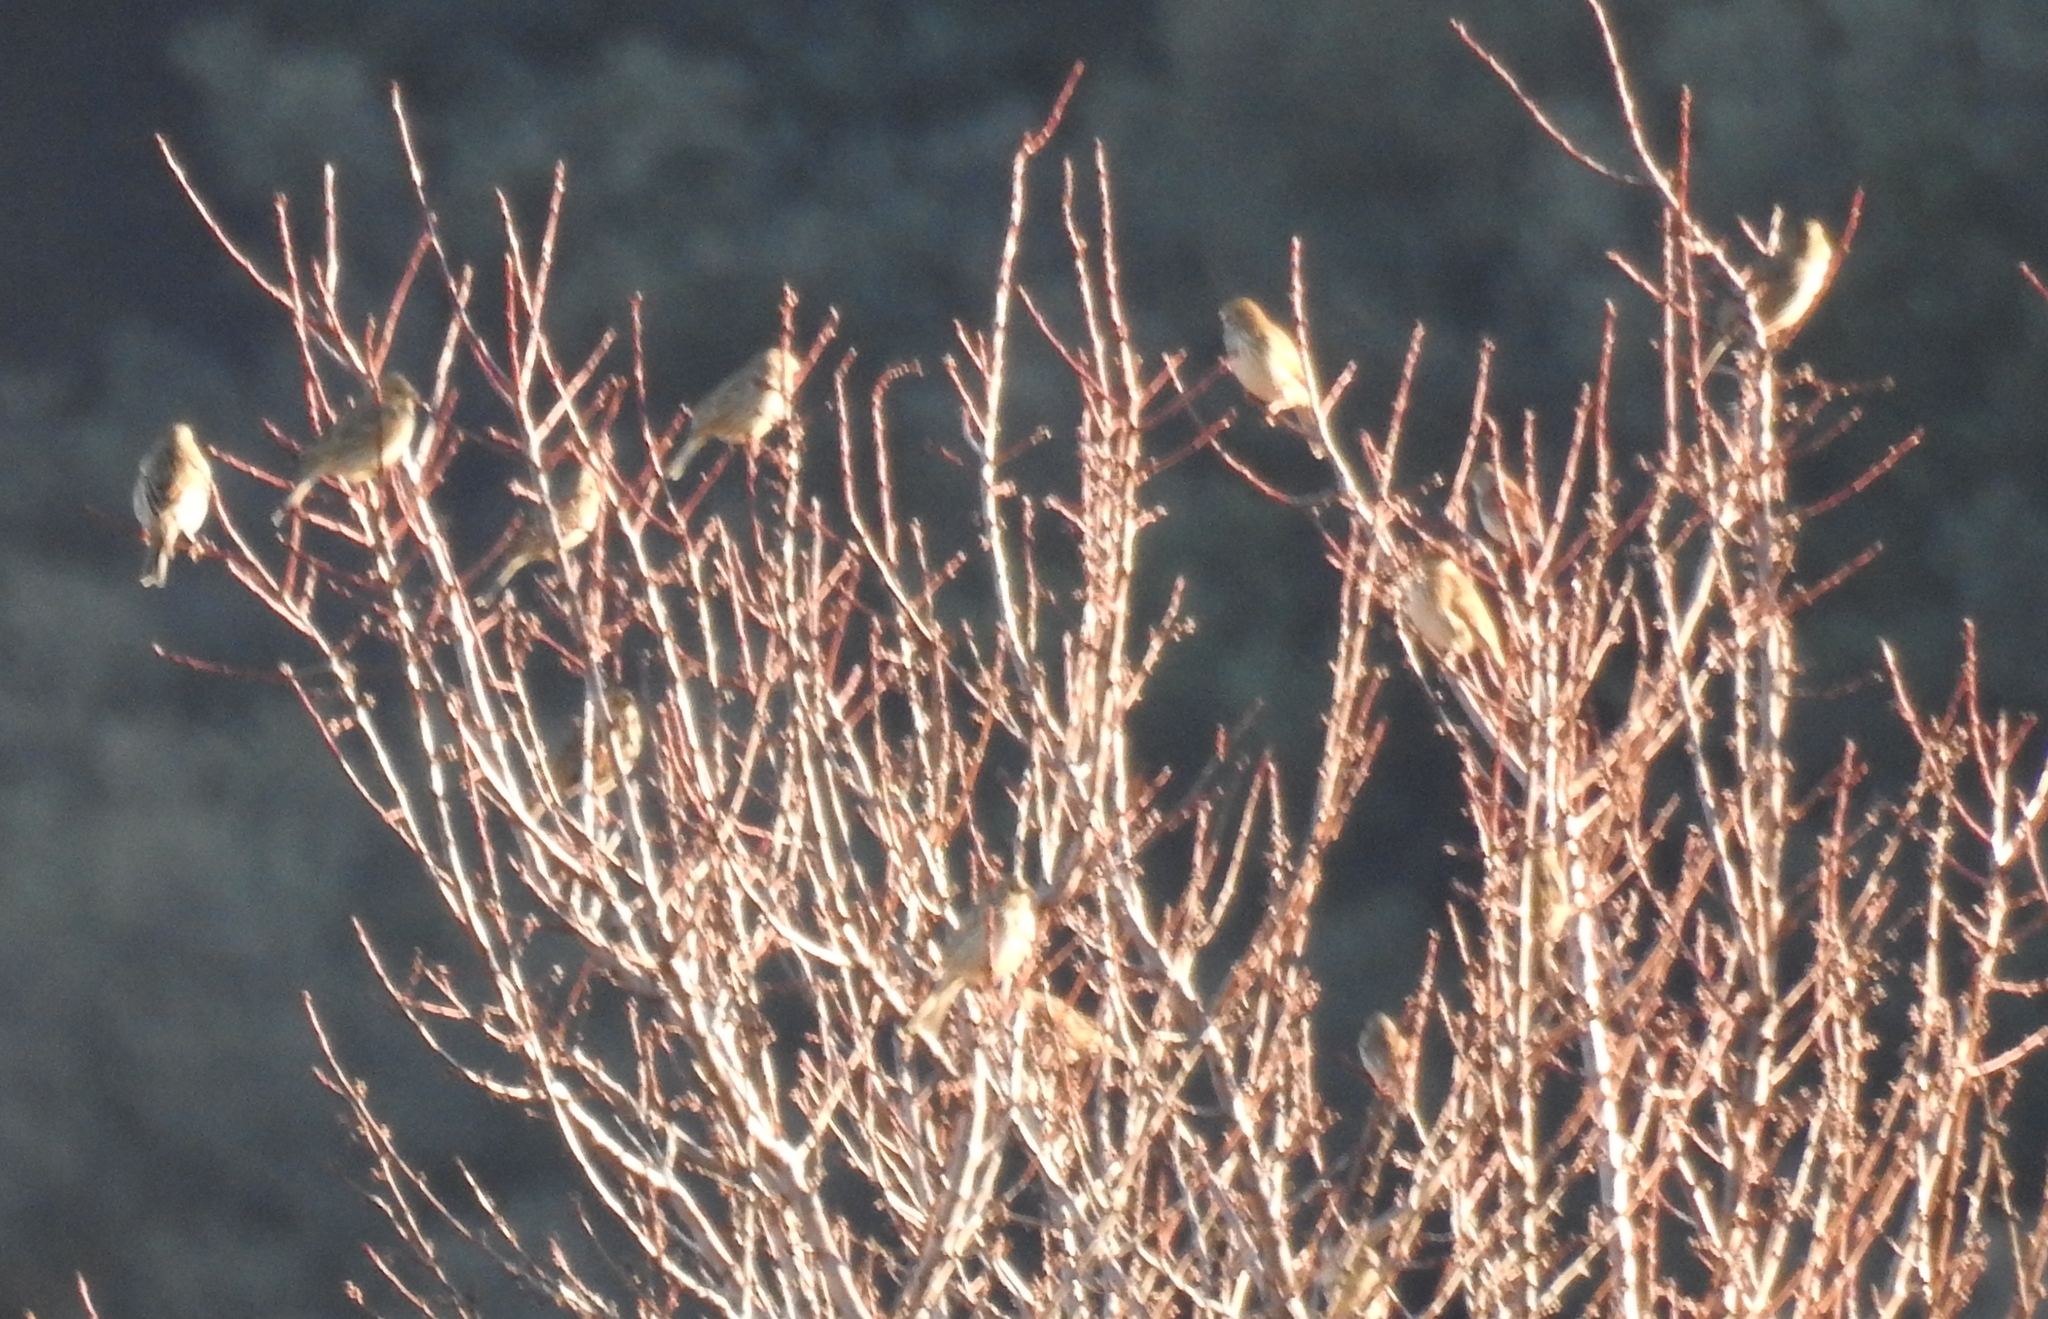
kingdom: Animalia
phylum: Chordata
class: Aves
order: Passeriformes
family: Emberizidae
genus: Emberiza
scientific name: Emberiza calandra
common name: Corn bunting
